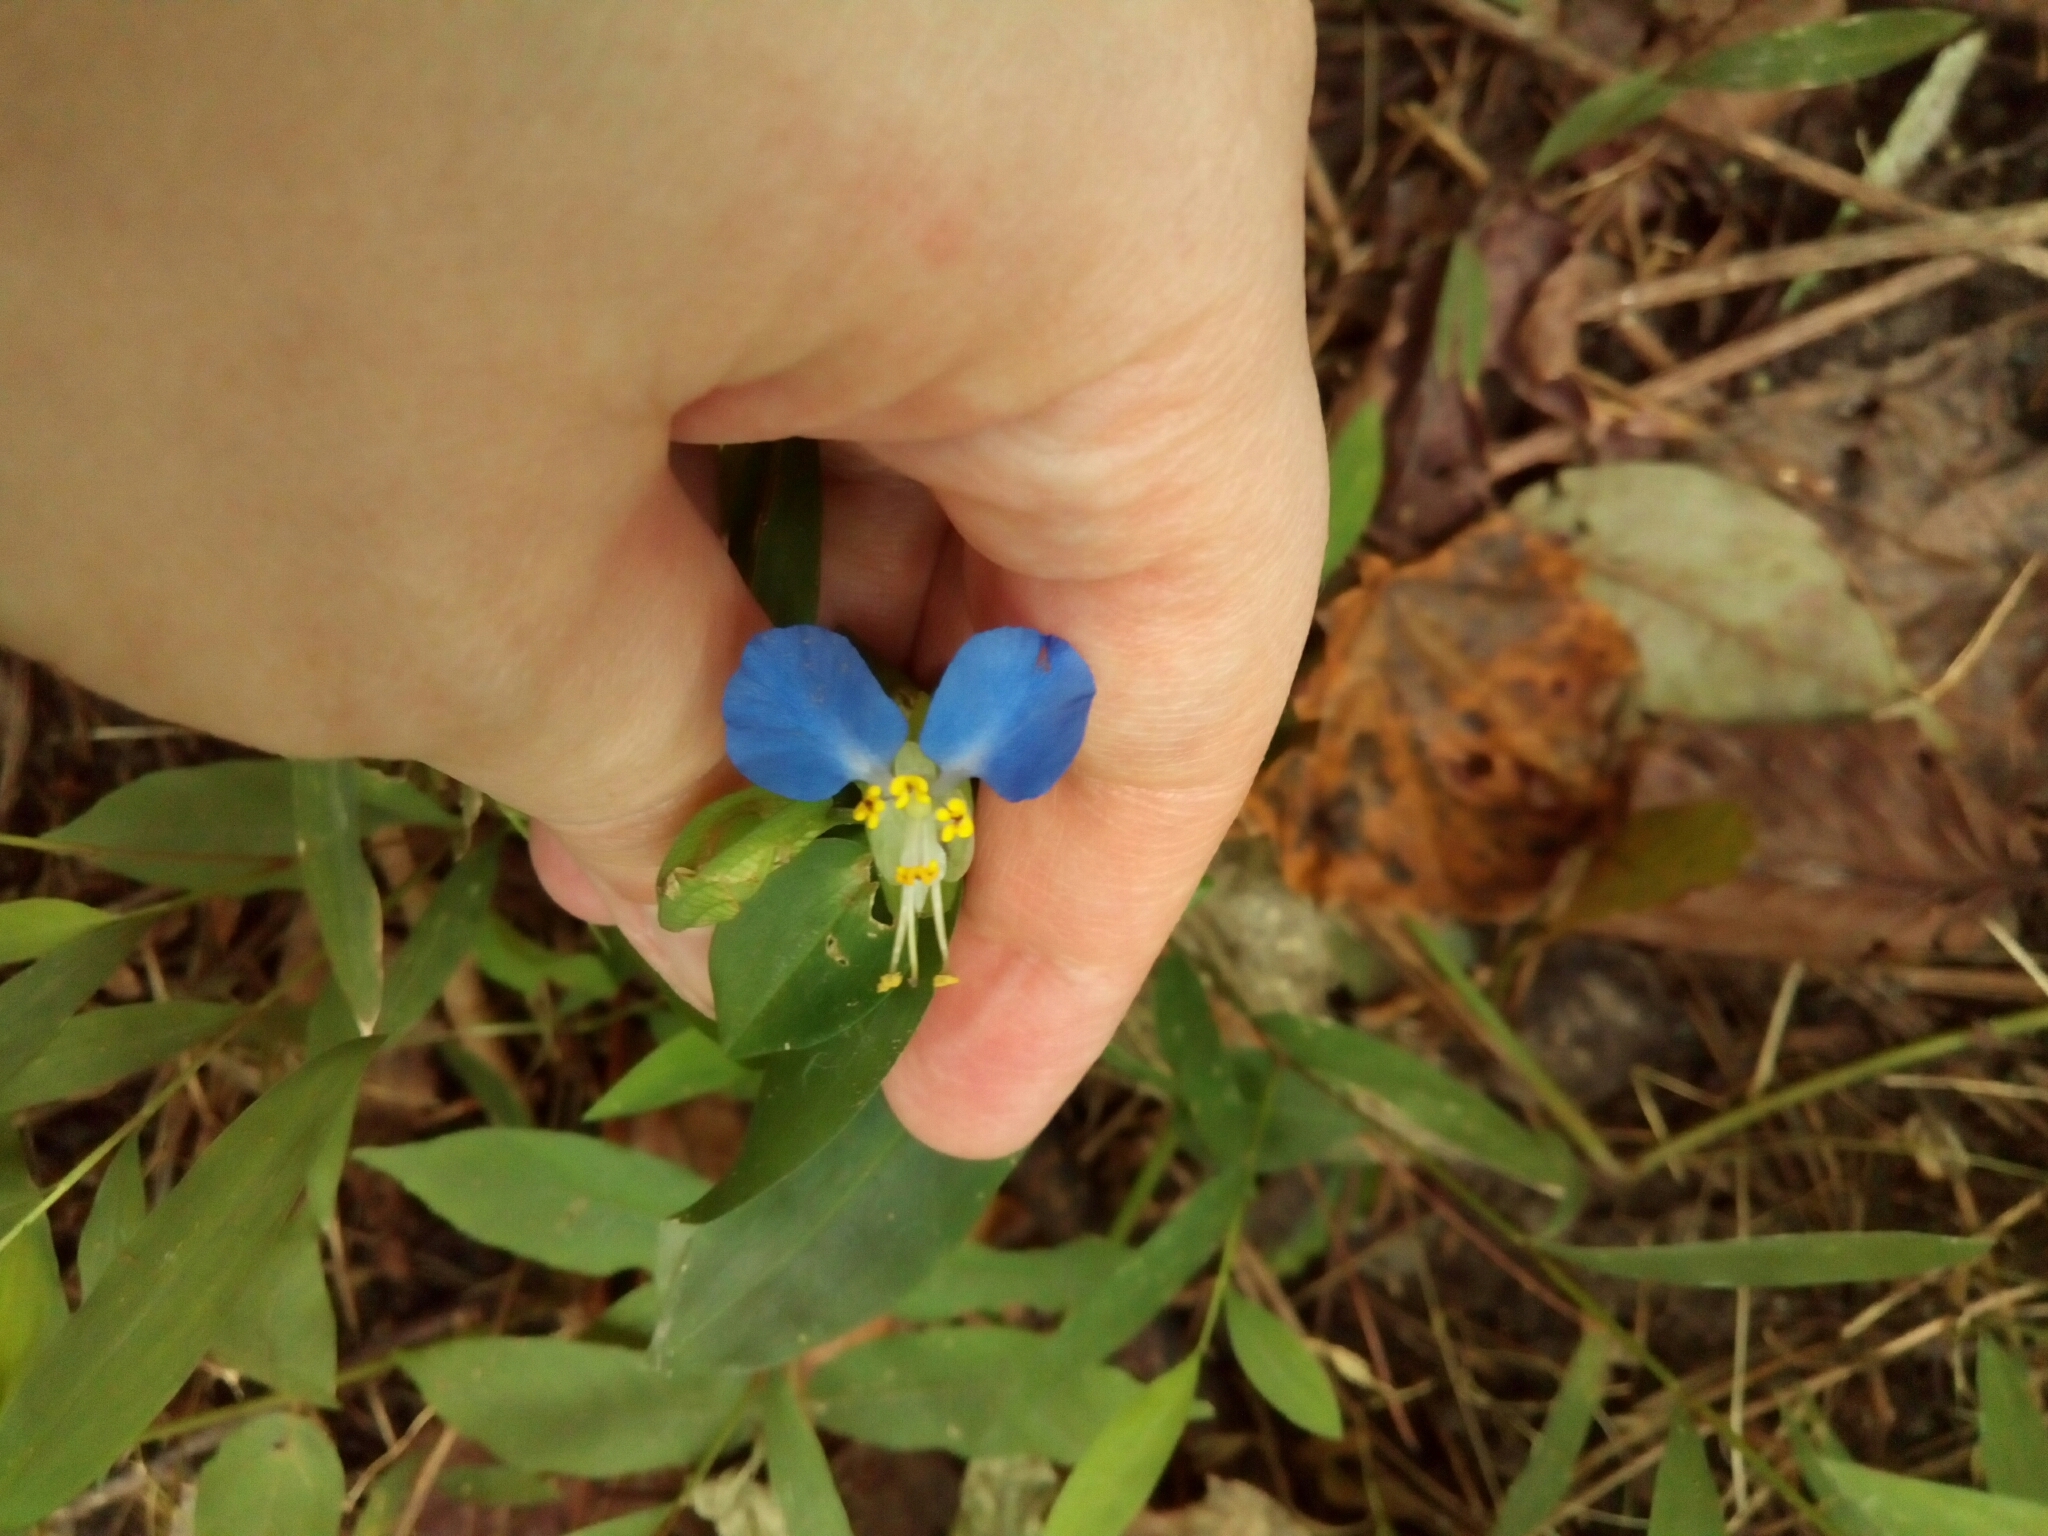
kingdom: Plantae
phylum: Tracheophyta
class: Liliopsida
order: Commelinales
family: Commelinaceae
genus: Commelina
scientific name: Commelina communis
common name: Asiatic dayflower
